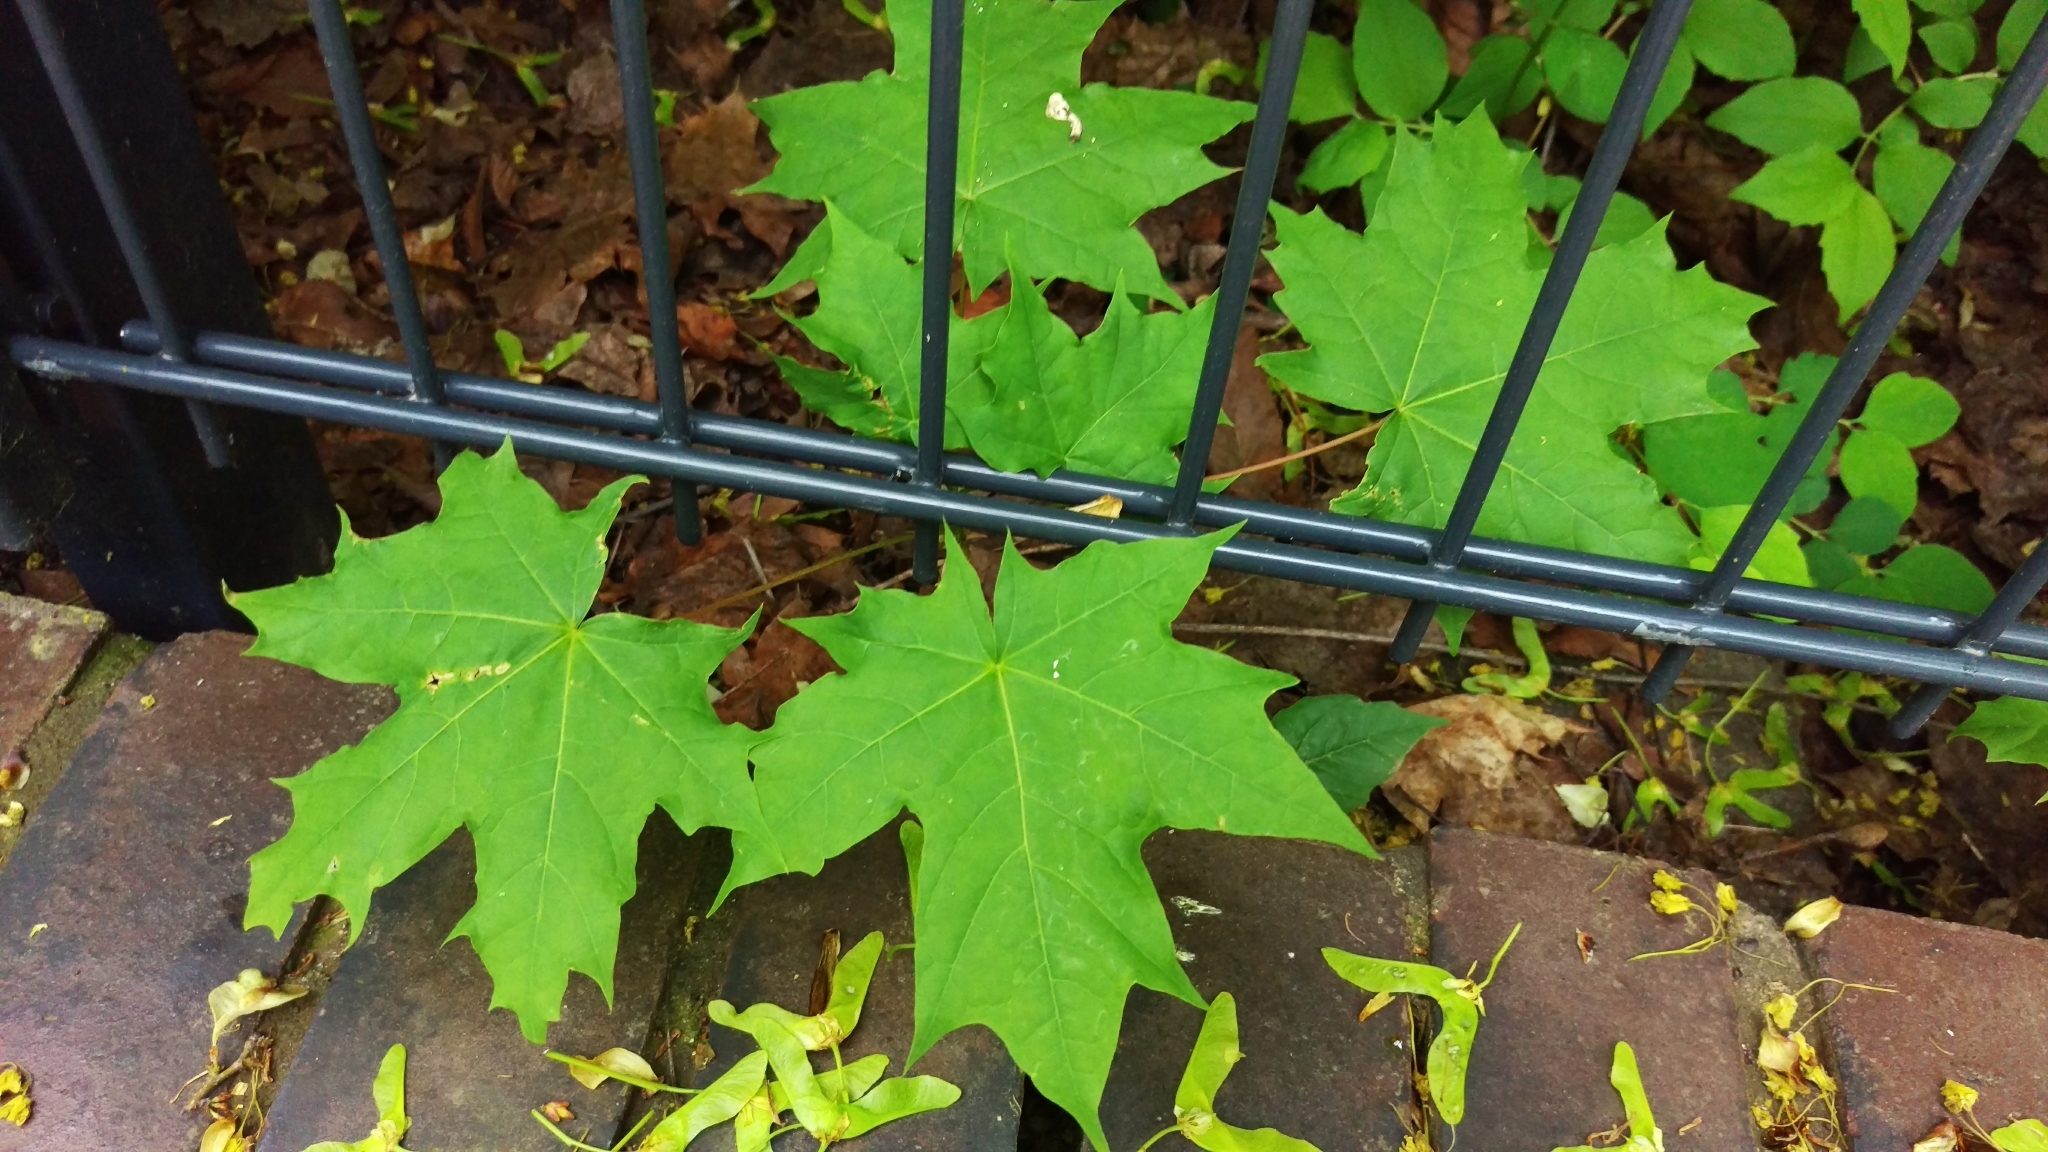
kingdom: Plantae
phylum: Tracheophyta
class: Magnoliopsida
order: Sapindales
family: Sapindaceae
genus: Acer
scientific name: Acer platanoides
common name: Norway maple
